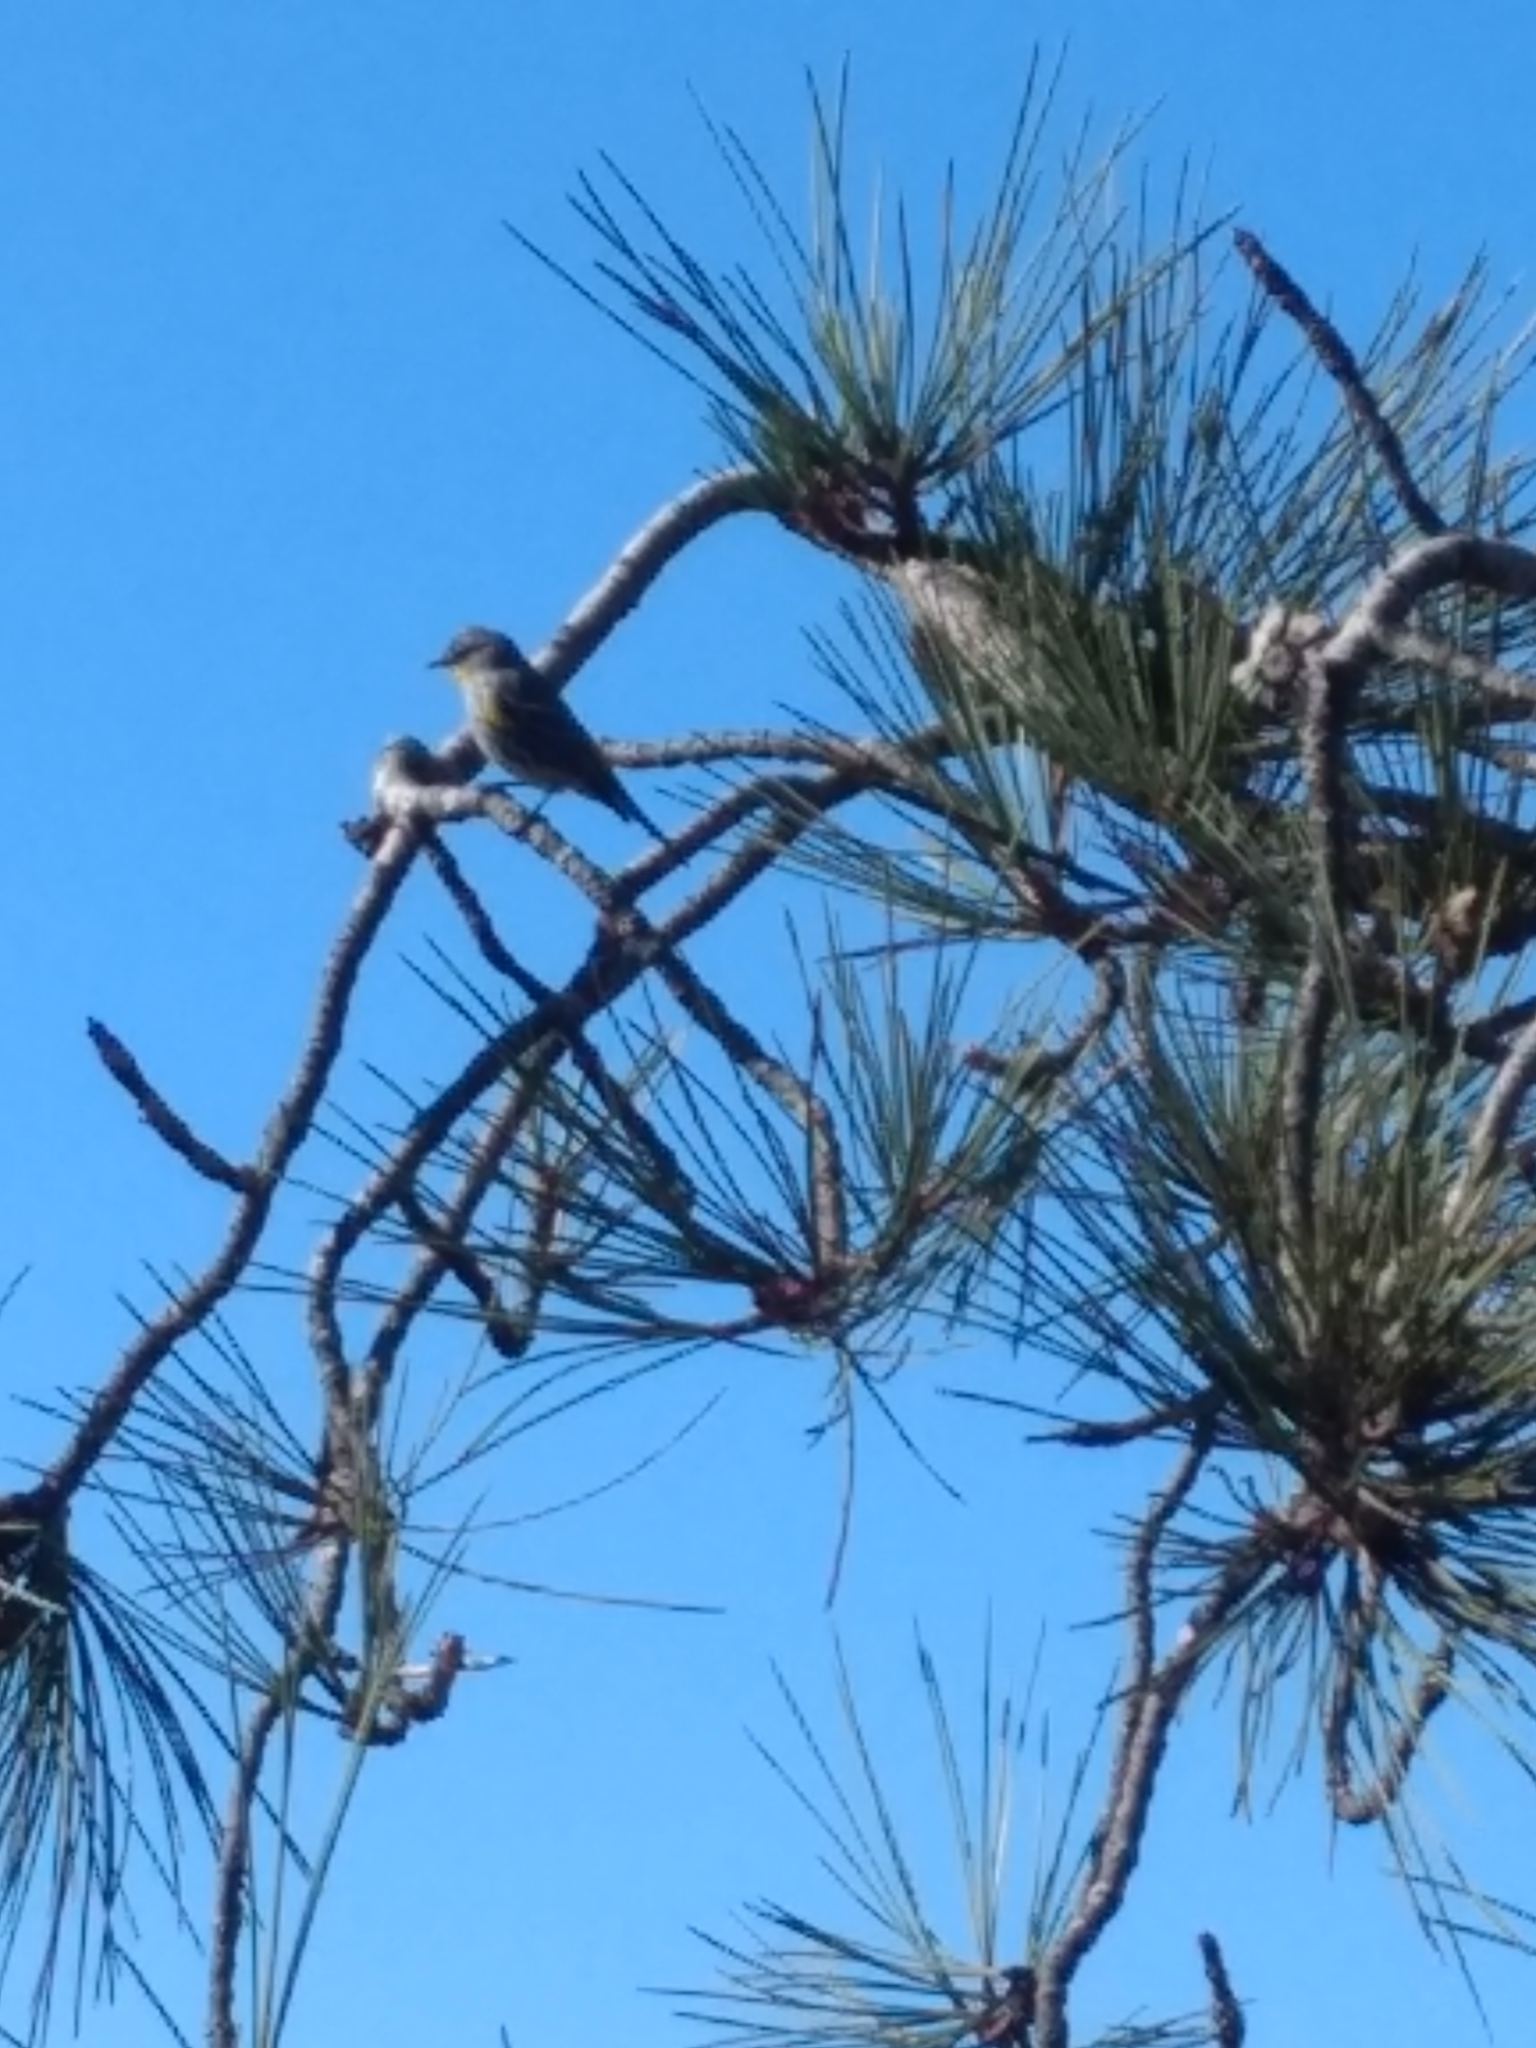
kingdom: Animalia
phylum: Chordata
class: Aves
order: Passeriformes
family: Parulidae
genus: Setophaga
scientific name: Setophaga coronata
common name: Myrtle warbler
